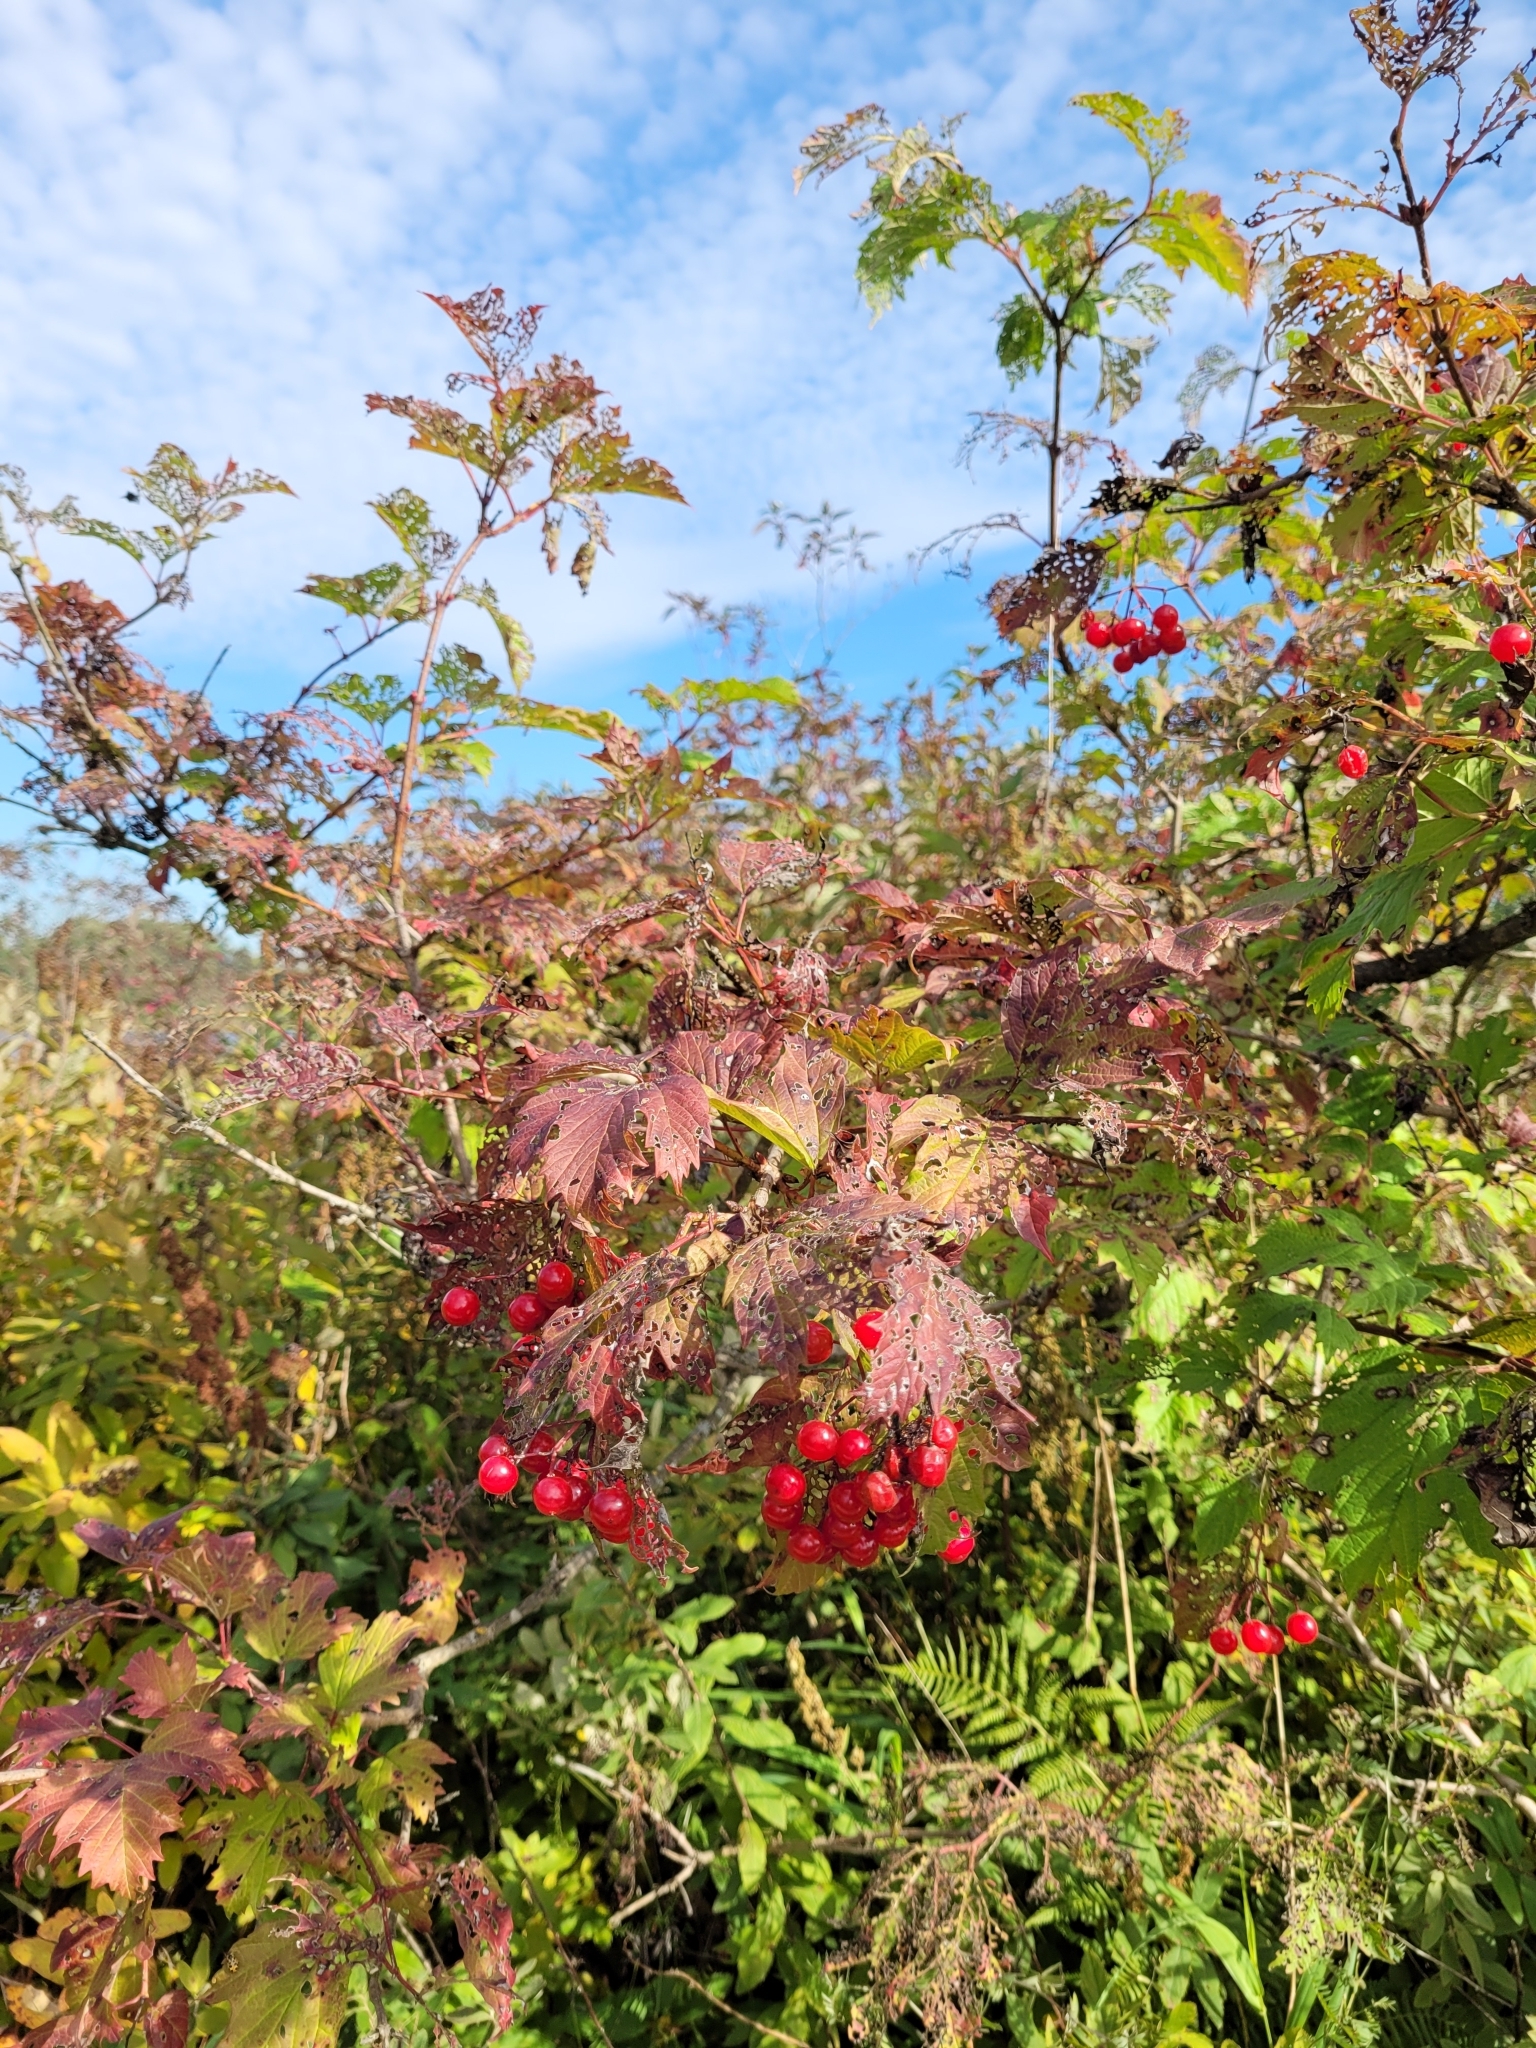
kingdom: Plantae
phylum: Tracheophyta
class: Magnoliopsida
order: Dipsacales
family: Viburnaceae
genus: Viburnum
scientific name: Viburnum opulus
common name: Guelder-rose
